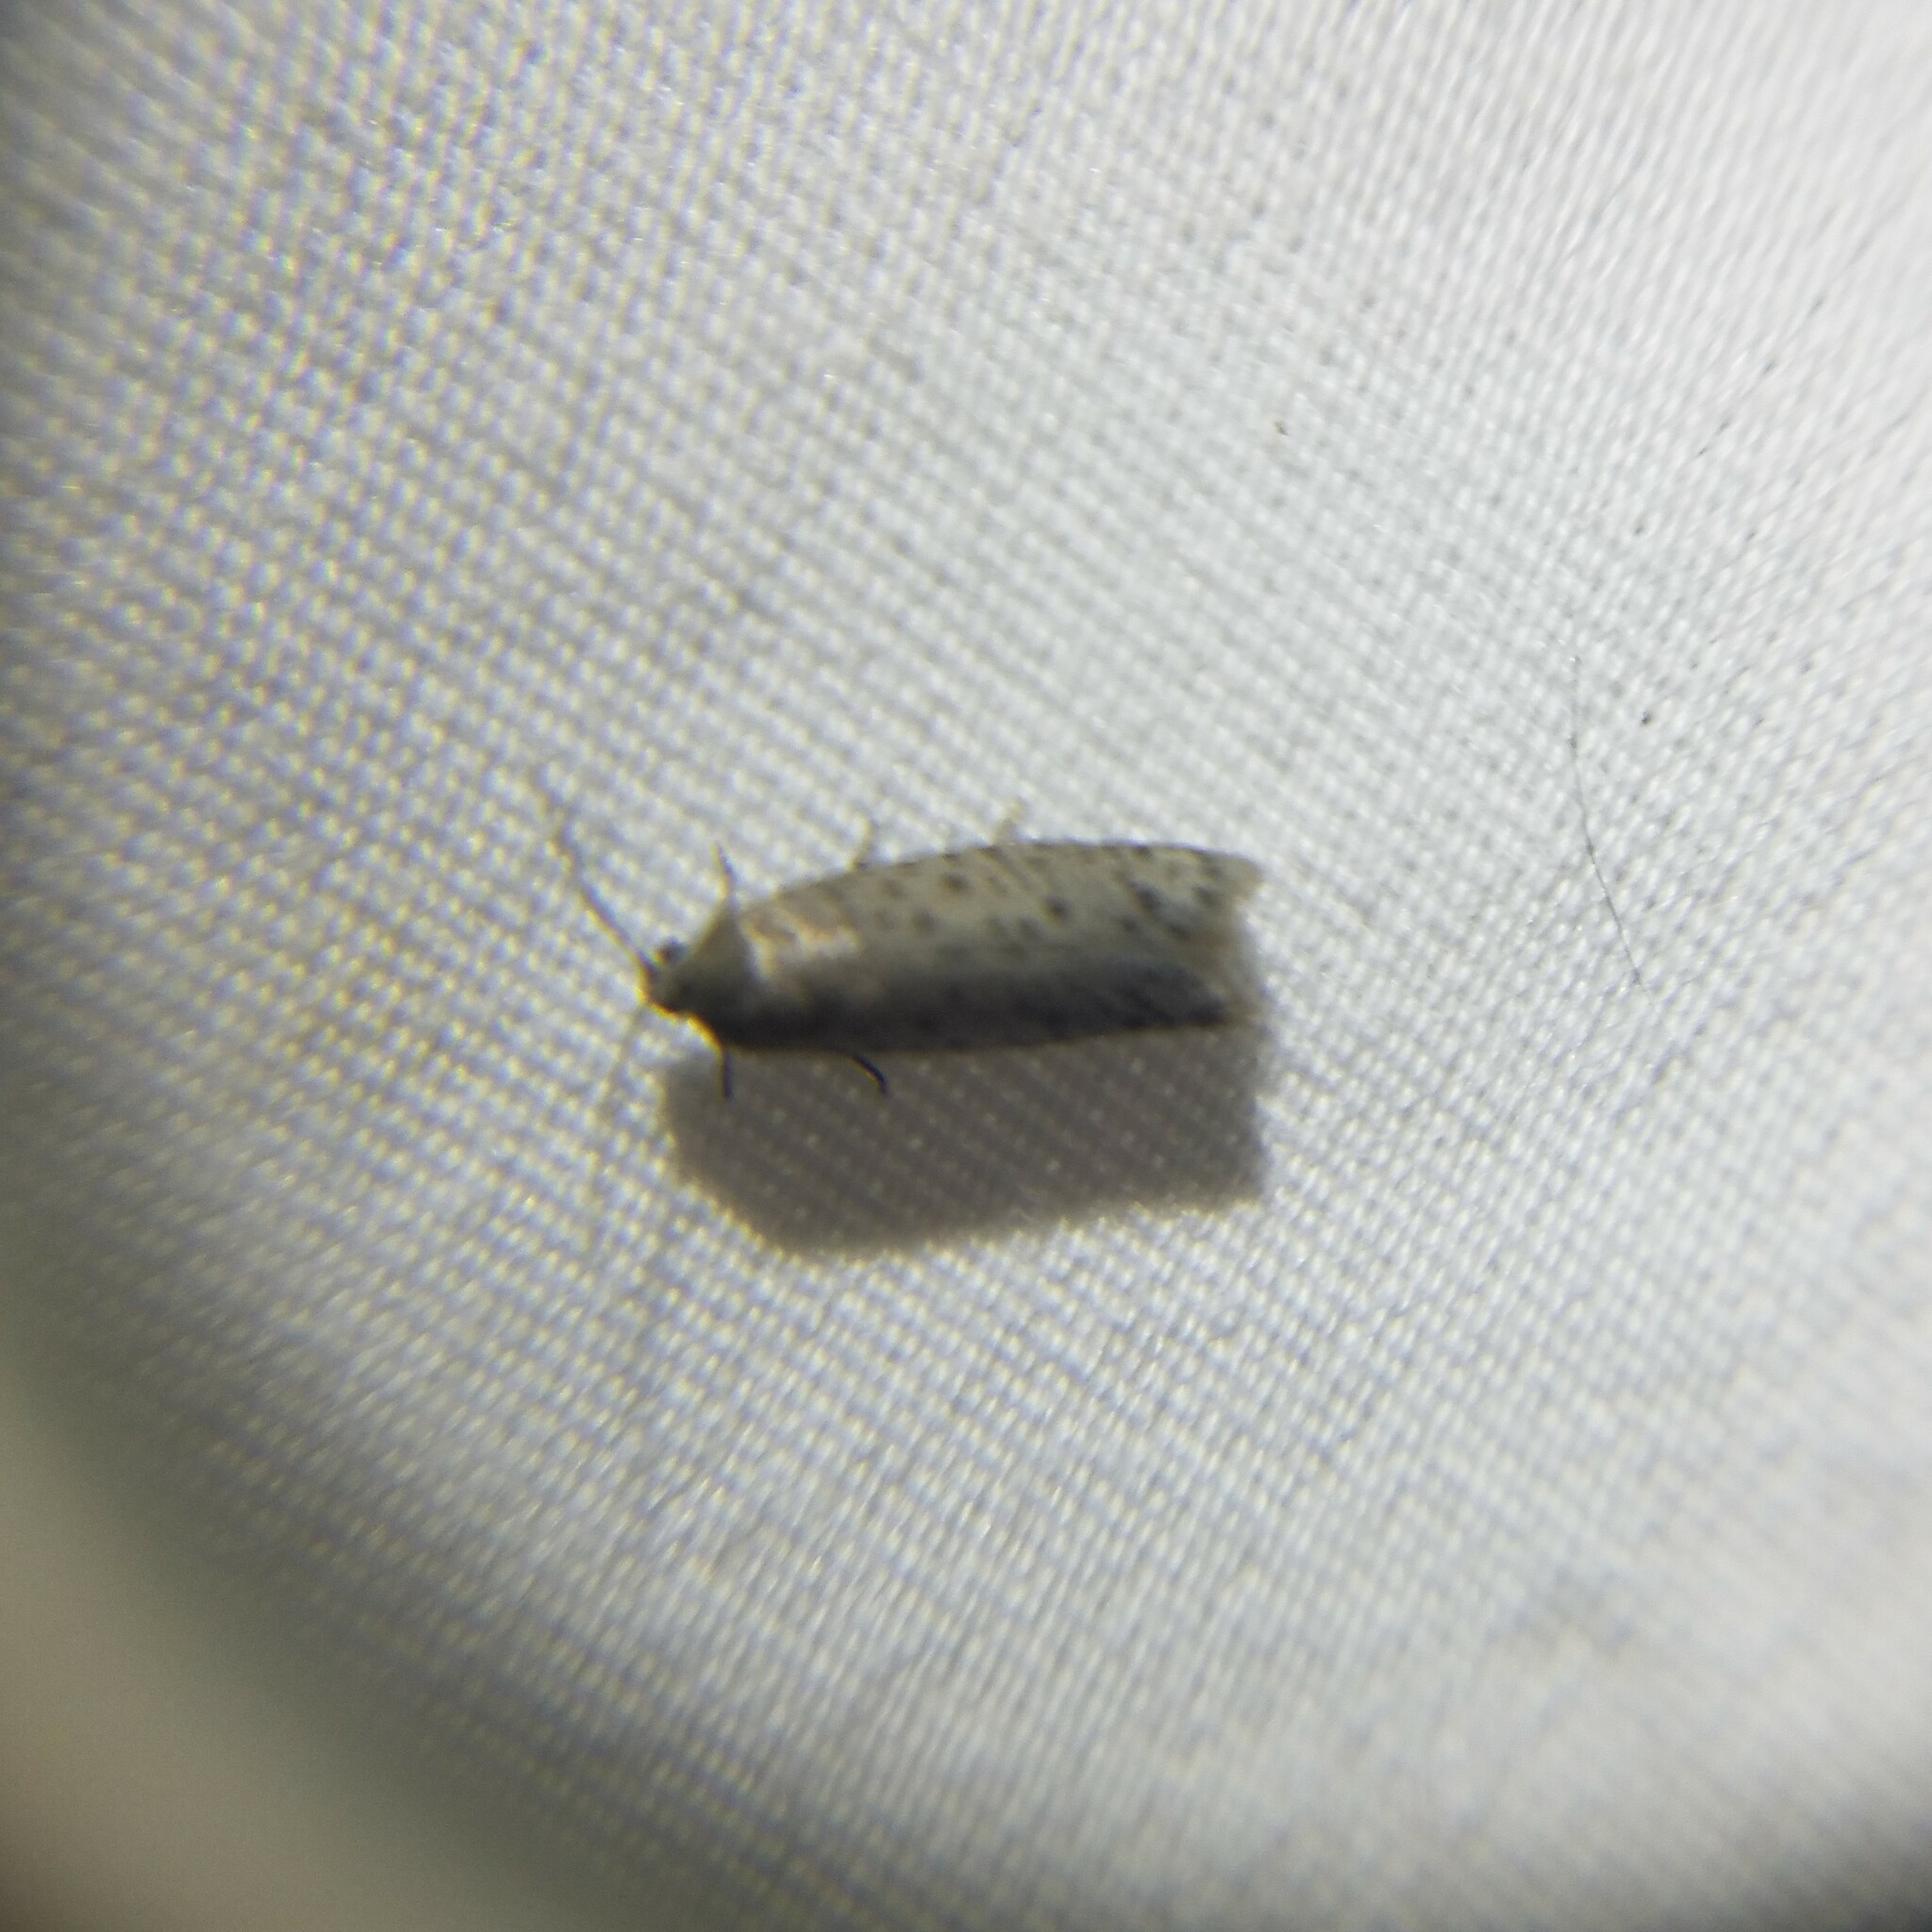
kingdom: Animalia
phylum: Arthropoda
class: Insecta
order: Lepidoptera
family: Galacticidae
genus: Homadaula
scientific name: Homadaula anisocentra
